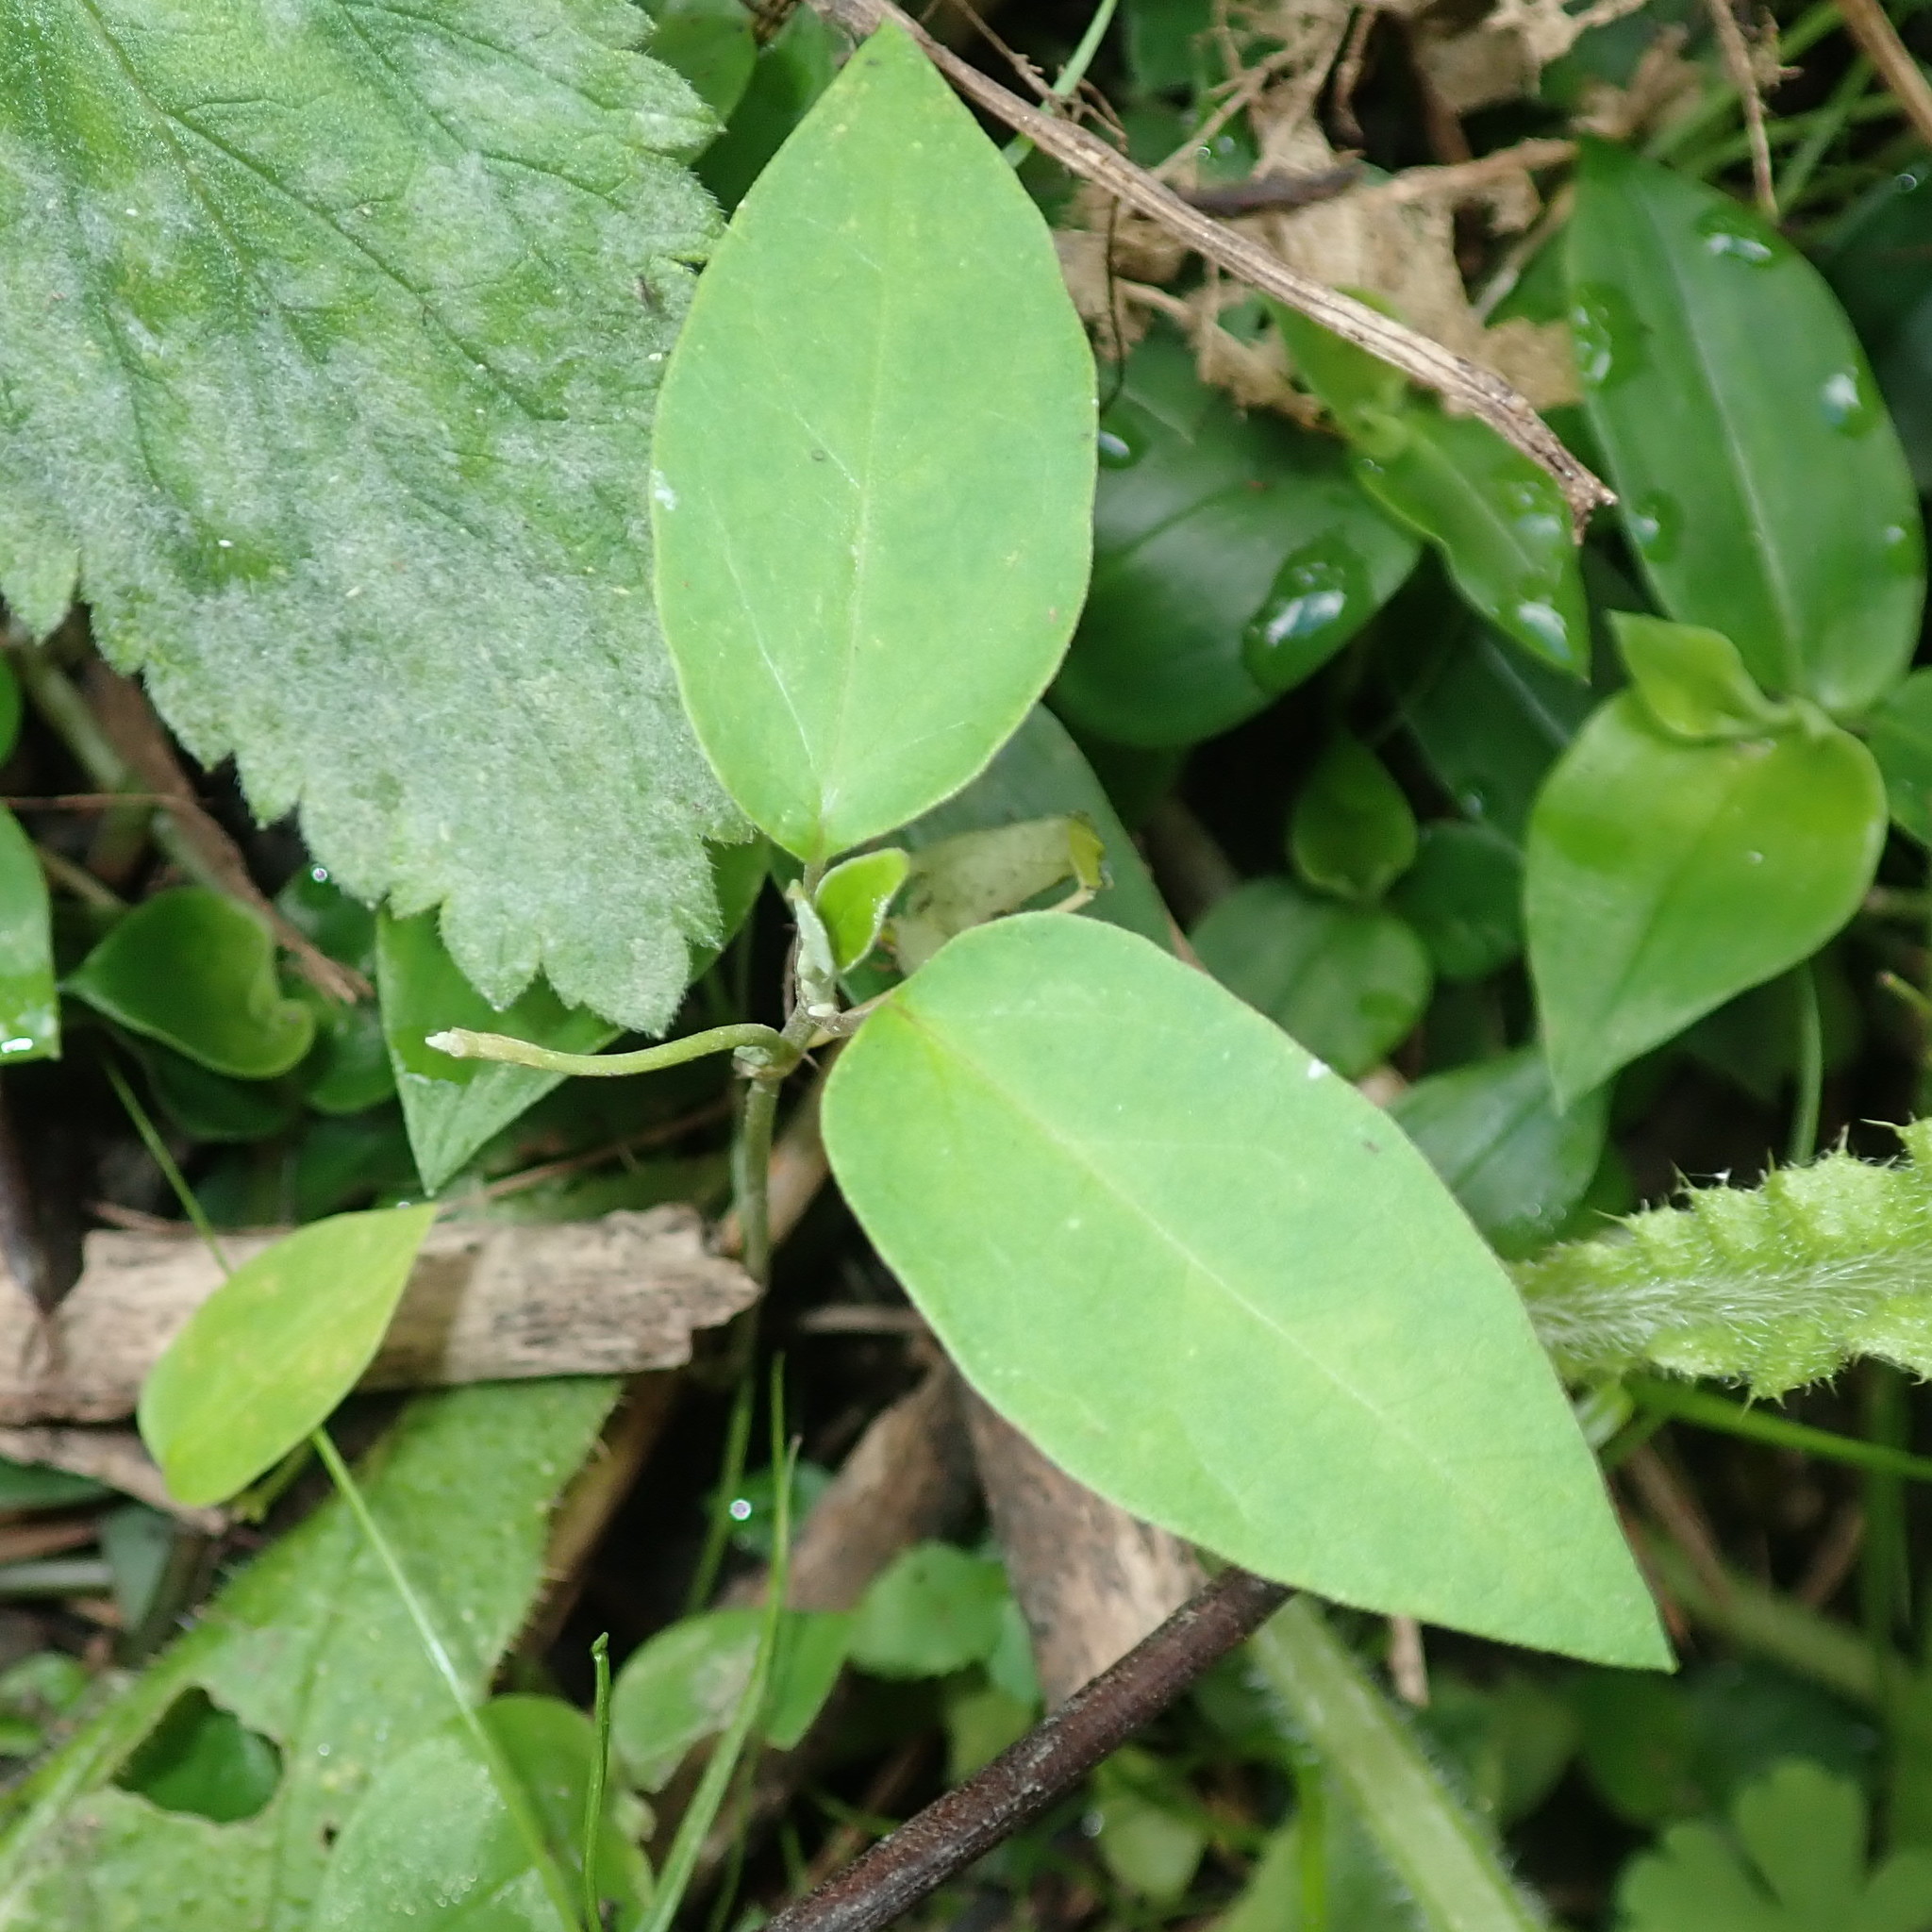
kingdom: Plantae
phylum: Tracheophyta
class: Magnoliopsida
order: Gentianales
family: Apocynaceae
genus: Araujia
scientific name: Araujia sericifera
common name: White bladderflower
